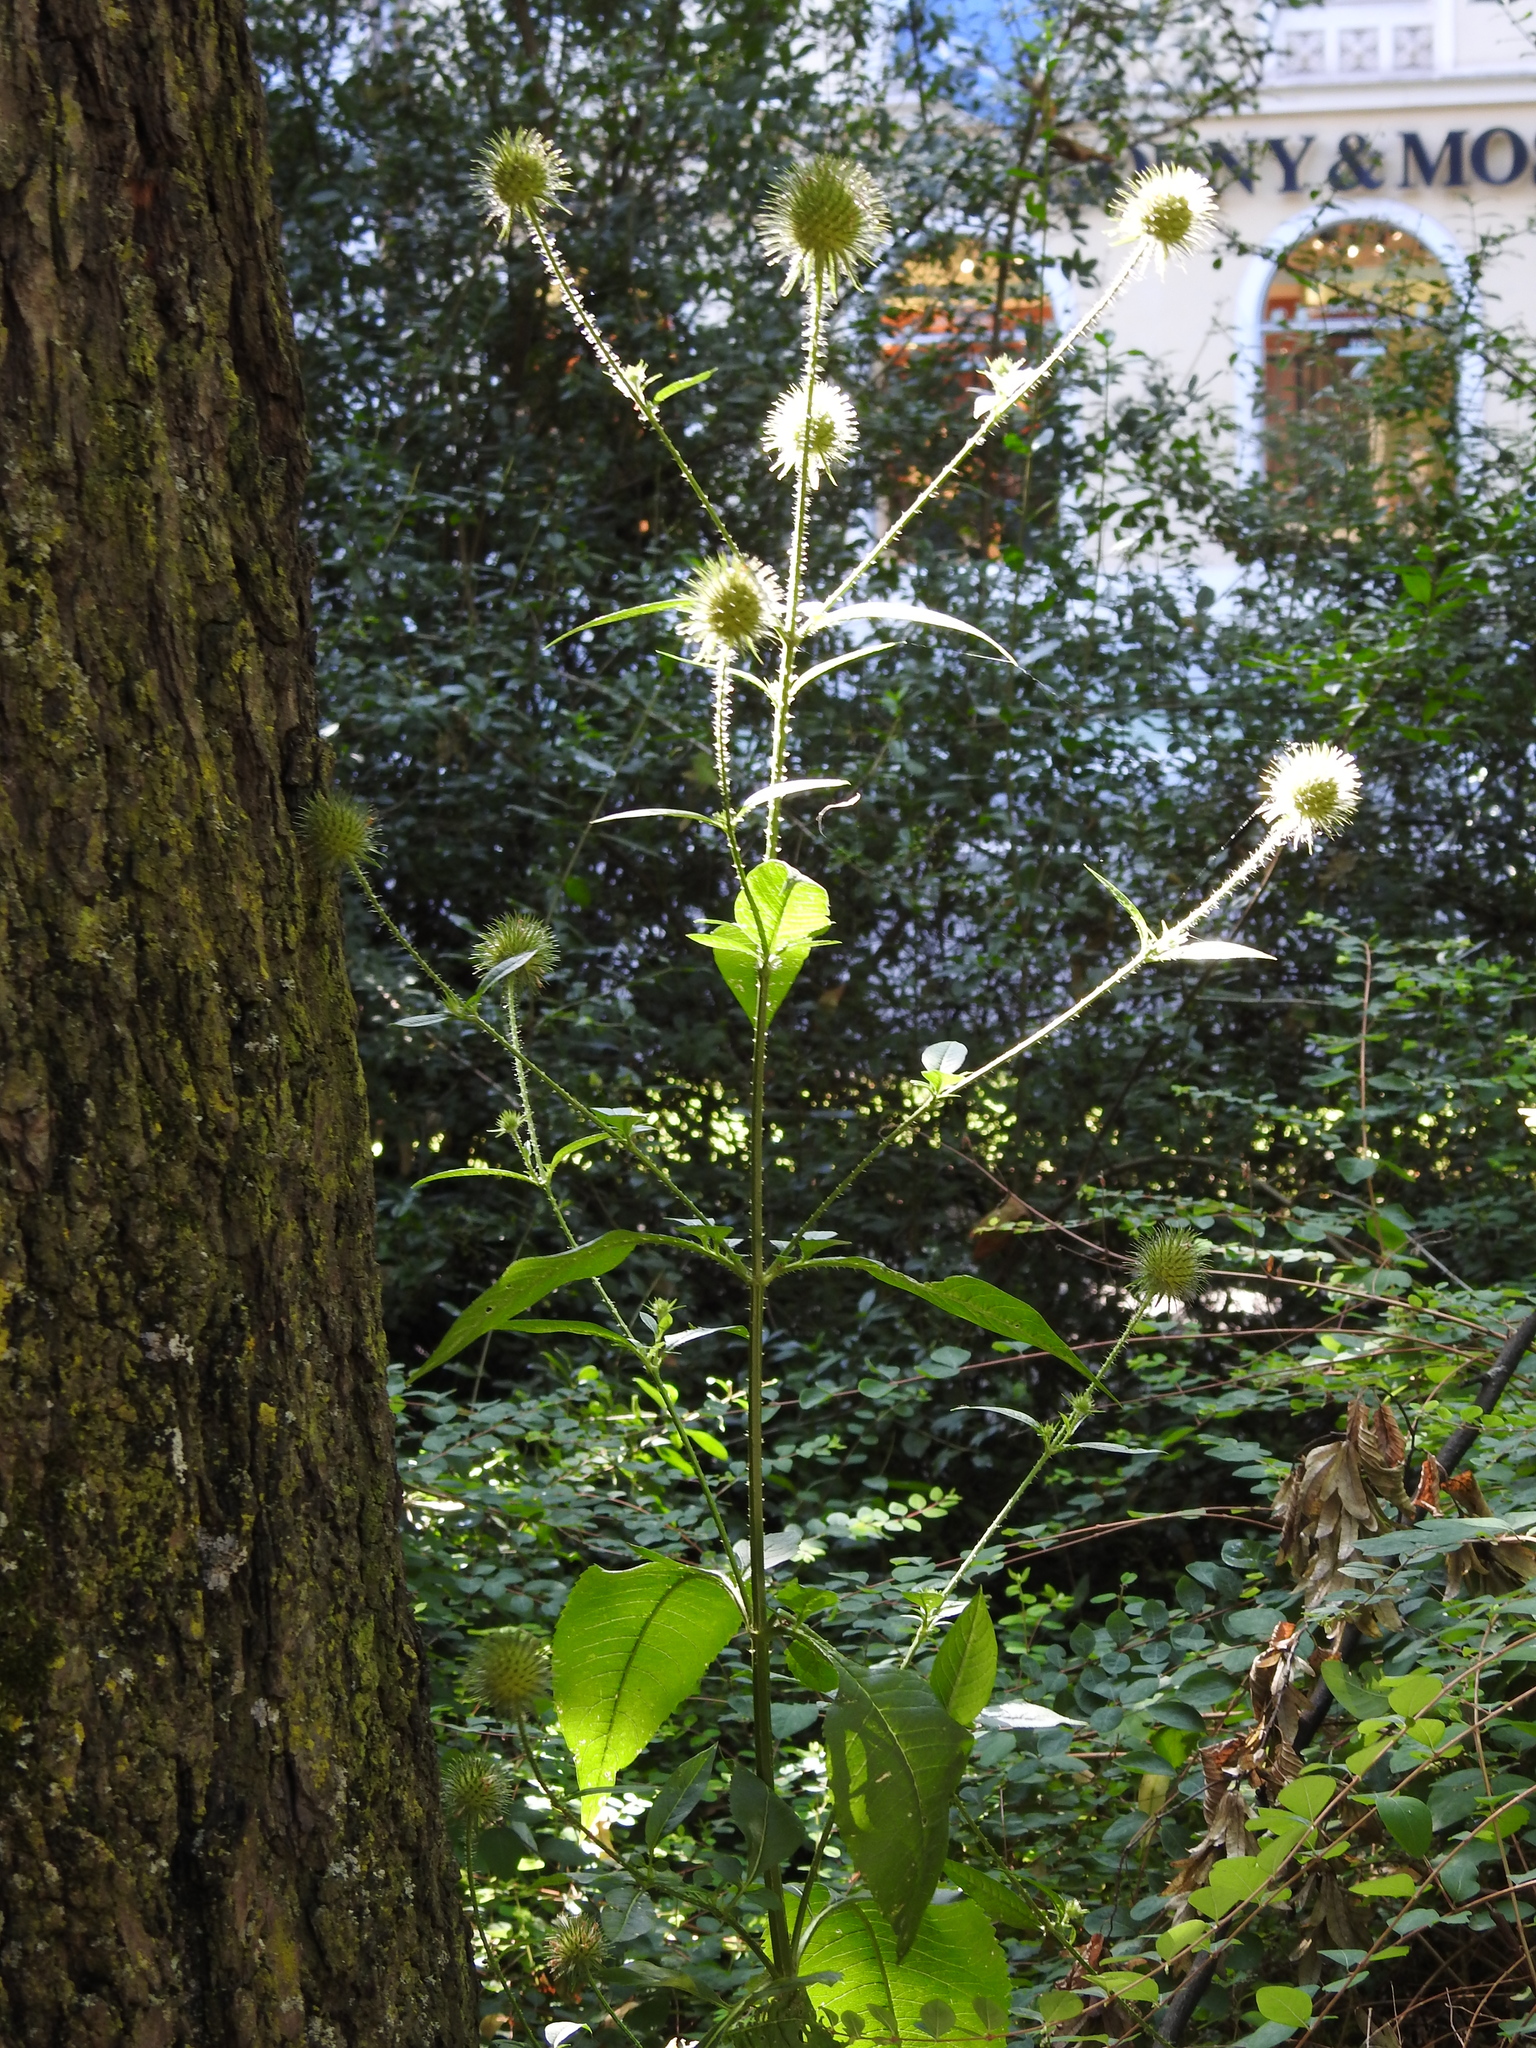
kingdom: Plantae
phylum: Tracheophyta
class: Magnoliopsida
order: Dipsacales
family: Caprifoliaceae
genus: Dipsacus
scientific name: Dipsacus strigosus
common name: Yellow-flowered teasel
